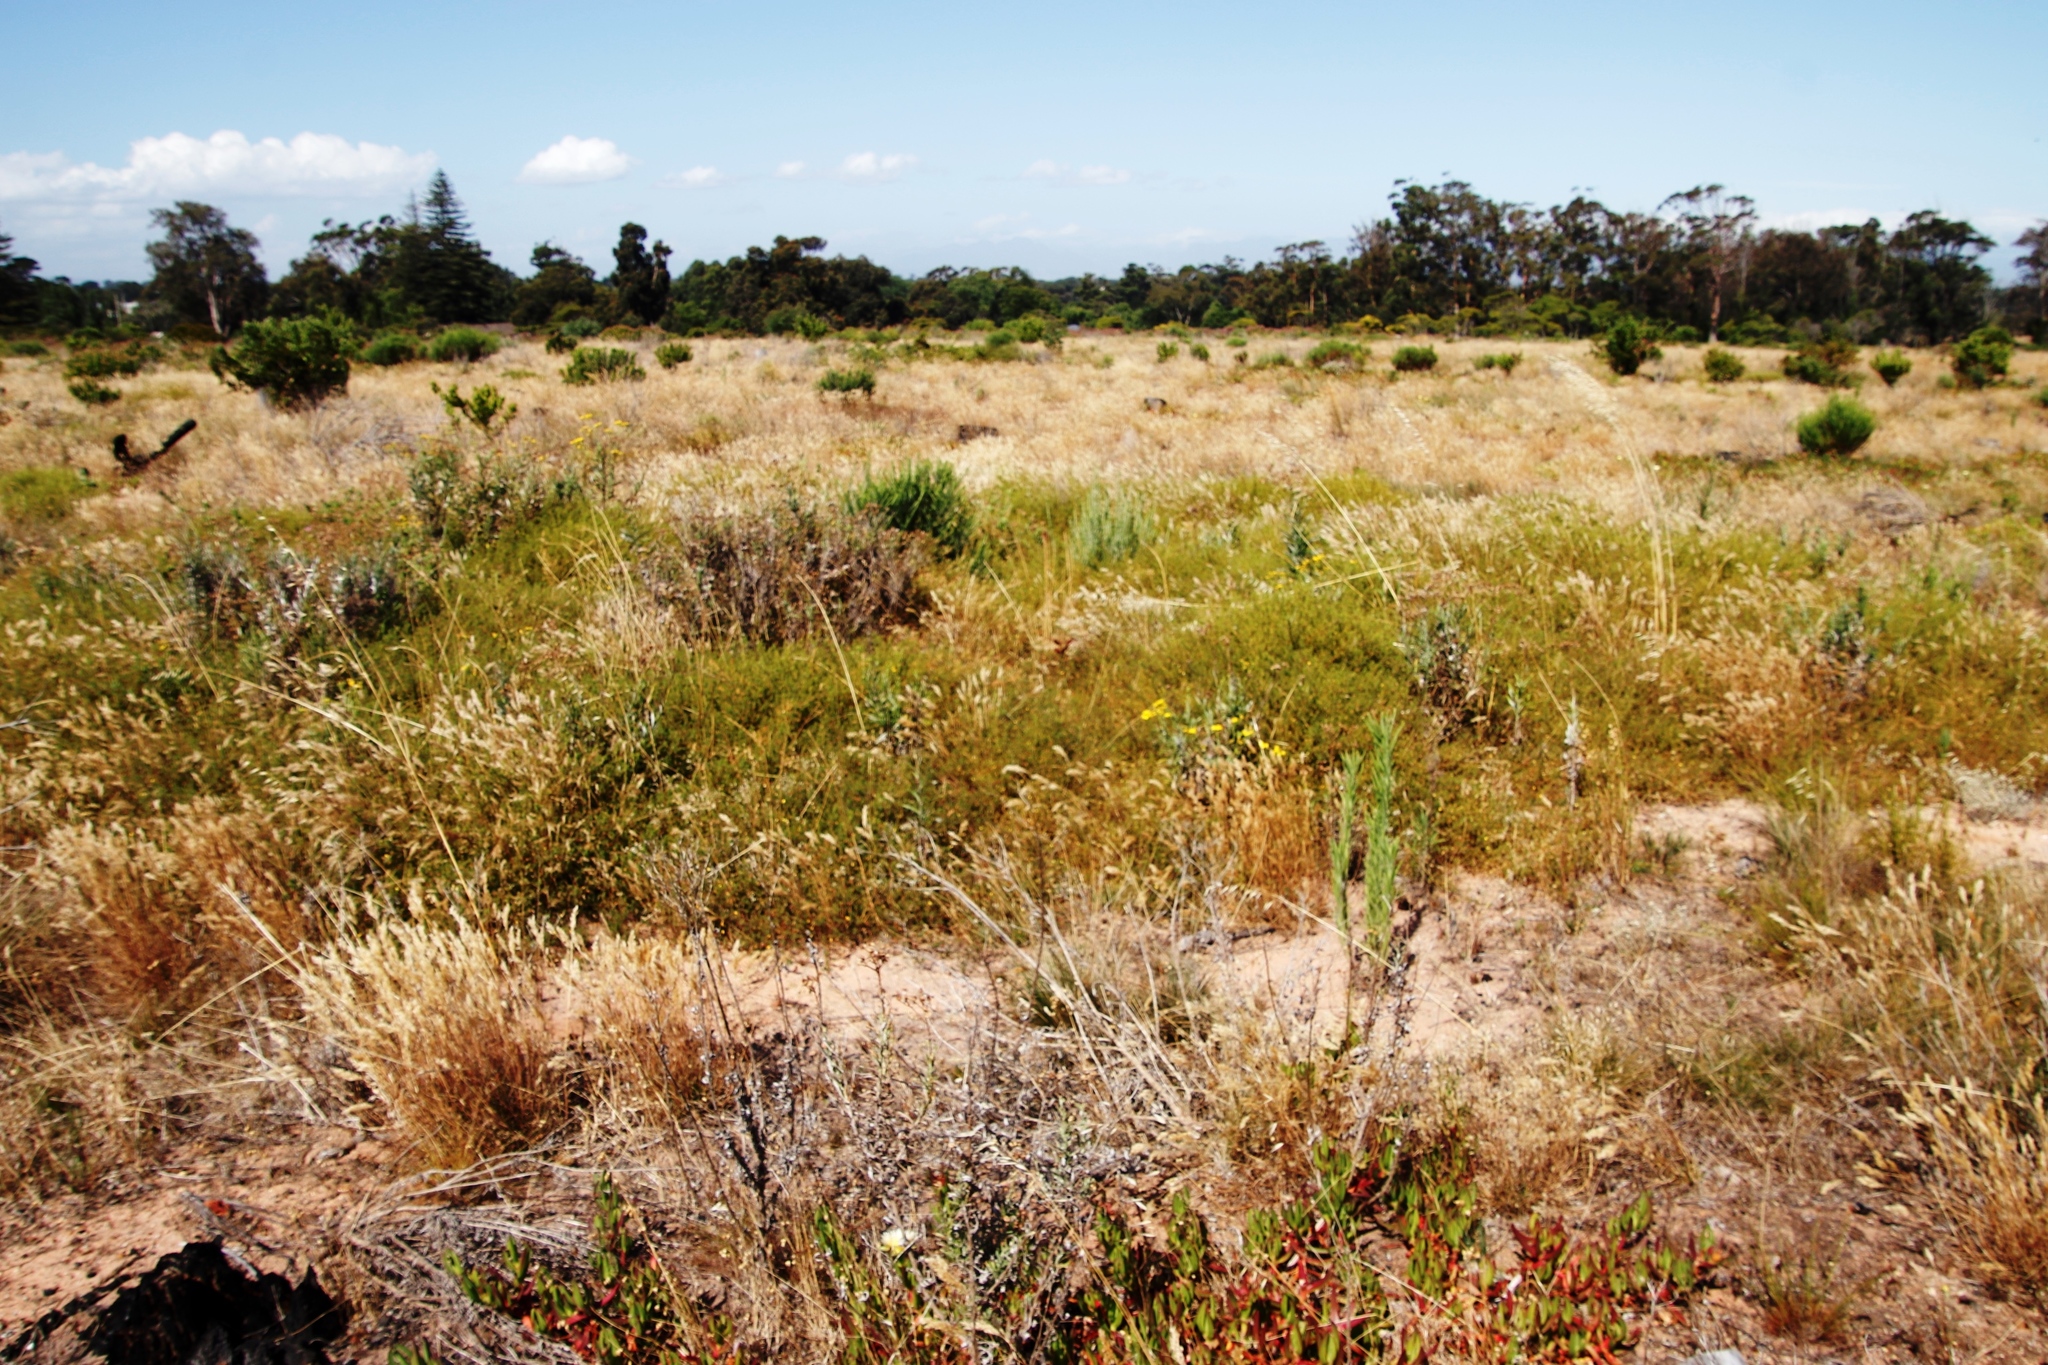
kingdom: Plantae
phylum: Tracheophyta
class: Magnoliopsida
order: Fabales
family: Fabaceae
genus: Aspalathus
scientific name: Aspalathus retroflexa
